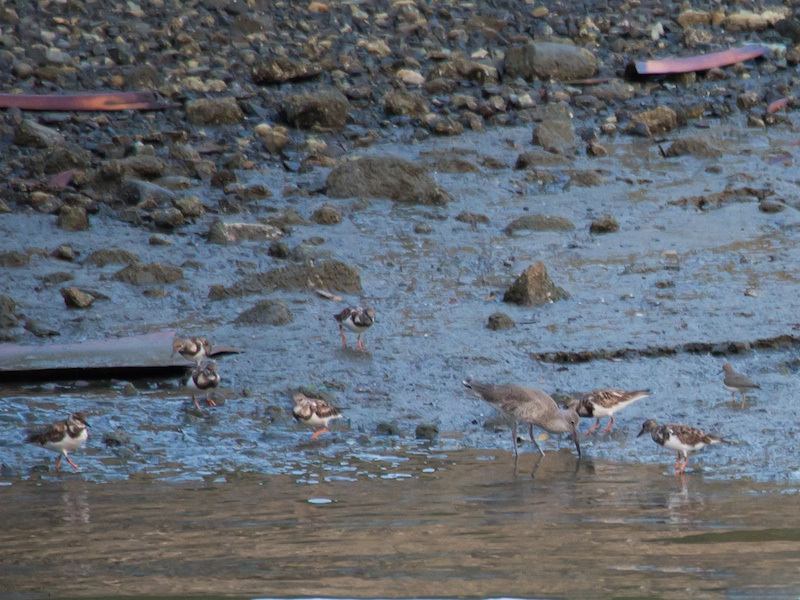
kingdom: Animalia
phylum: Chordata
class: Aves
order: Charadriiformes
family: Scolopacidae
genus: Actitis
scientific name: Actitis macularius
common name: Spotted sandpiper
